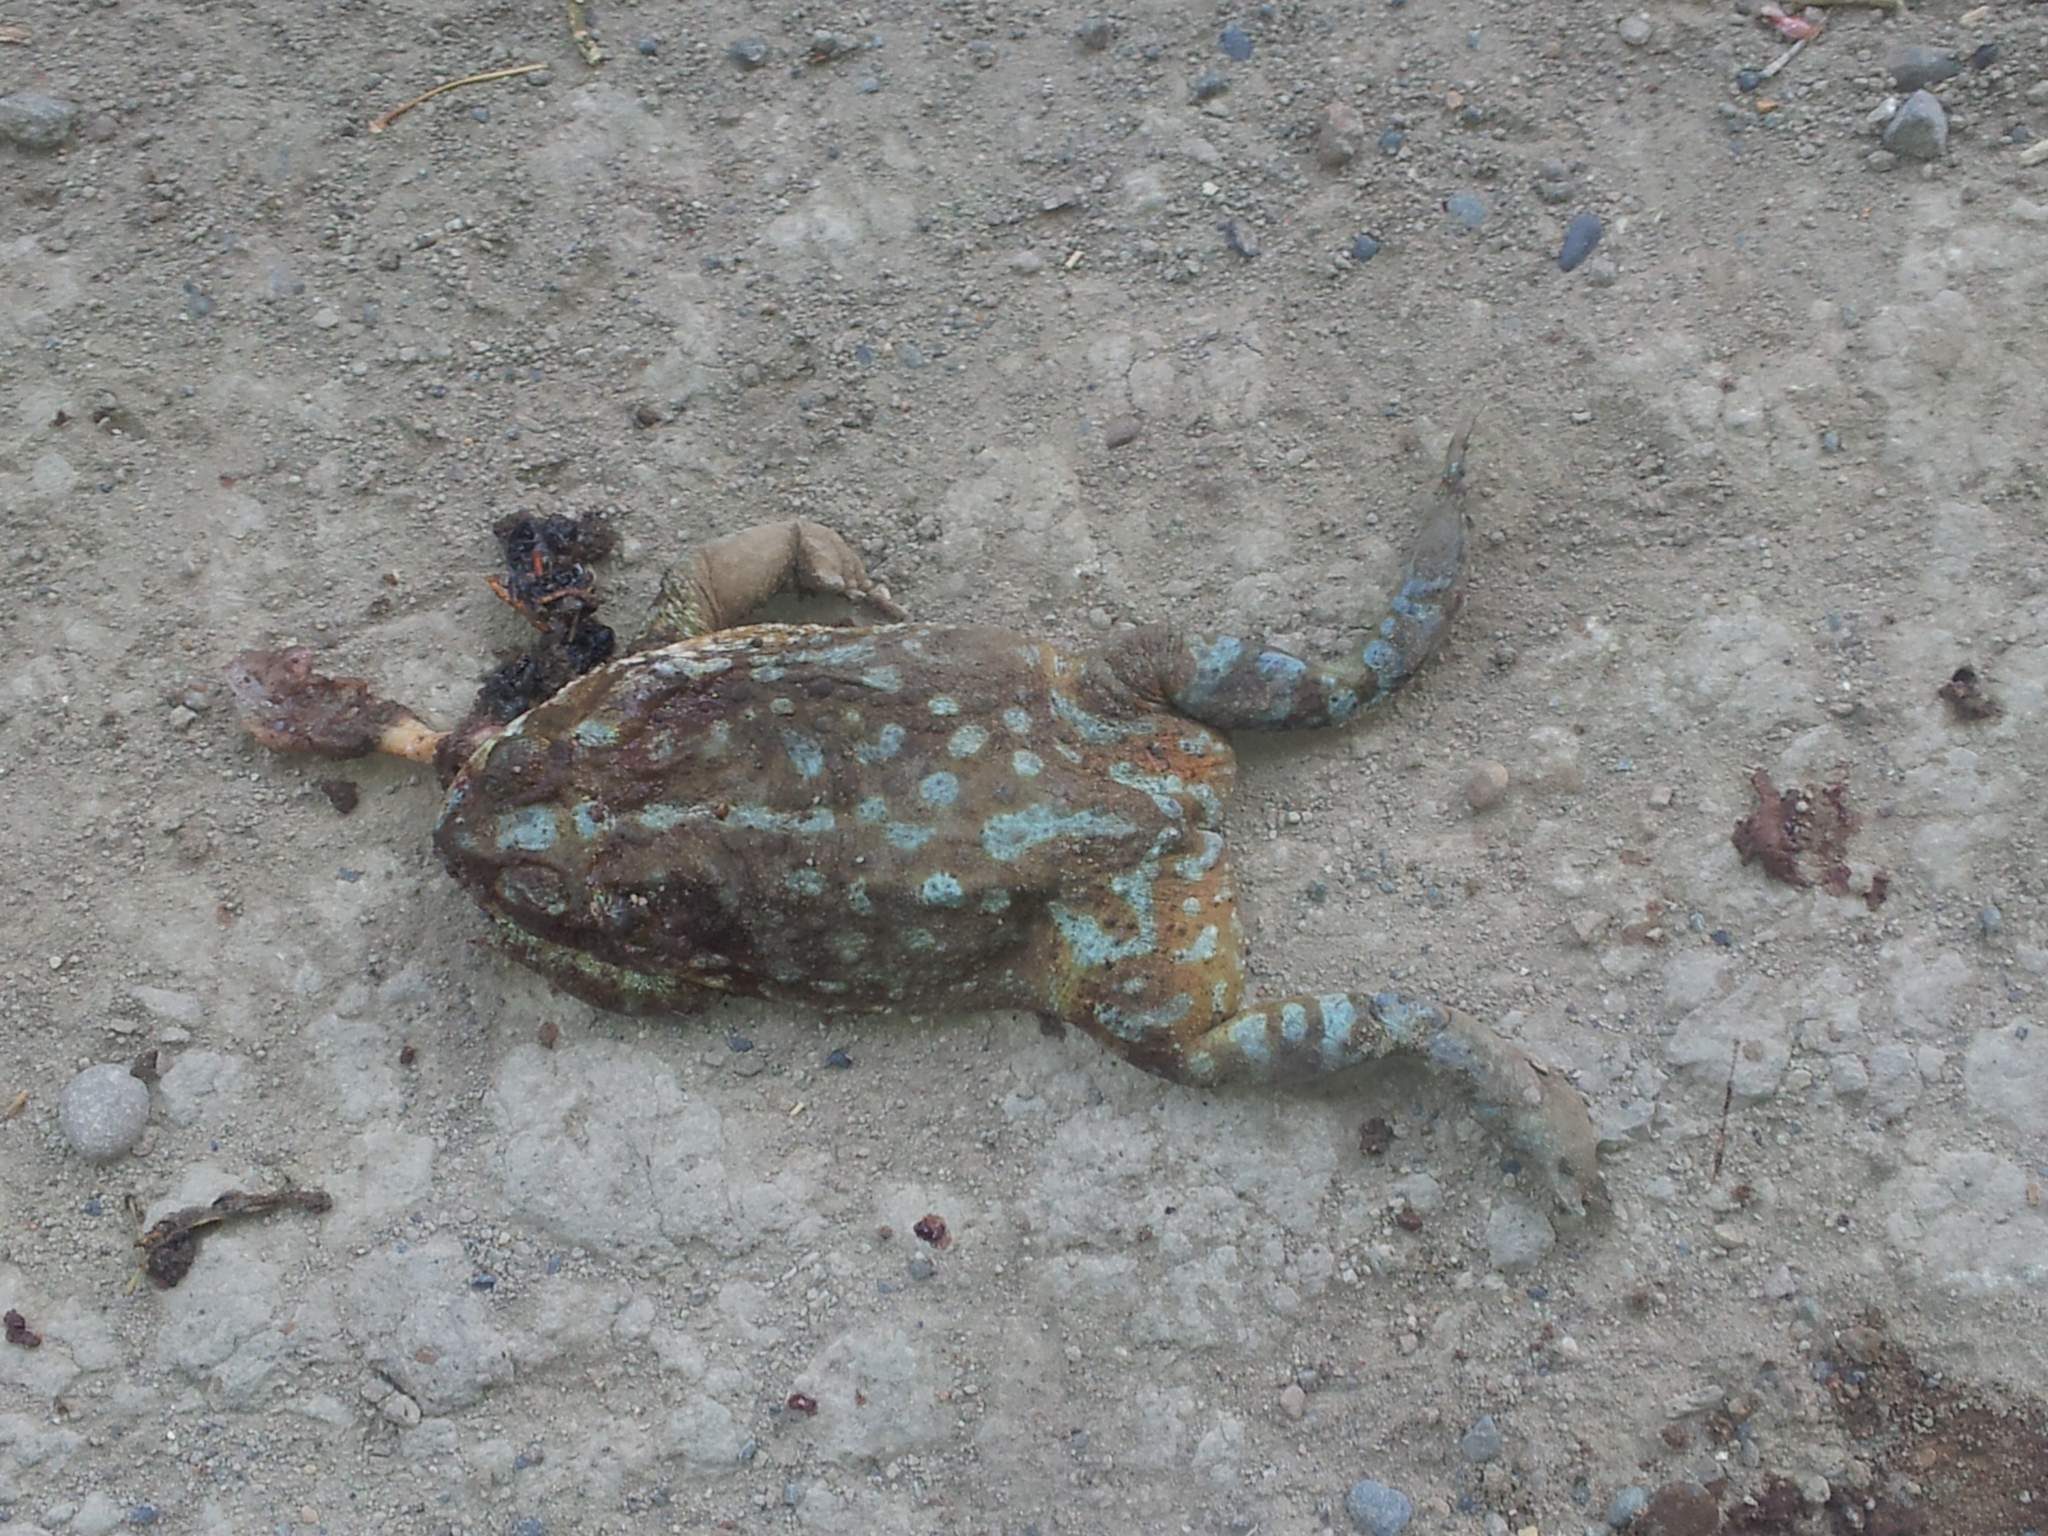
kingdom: Animalia
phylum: Chordata
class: Amphibia
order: Anura
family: Bufonidae
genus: Rhinella
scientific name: Rhinella arenarum
